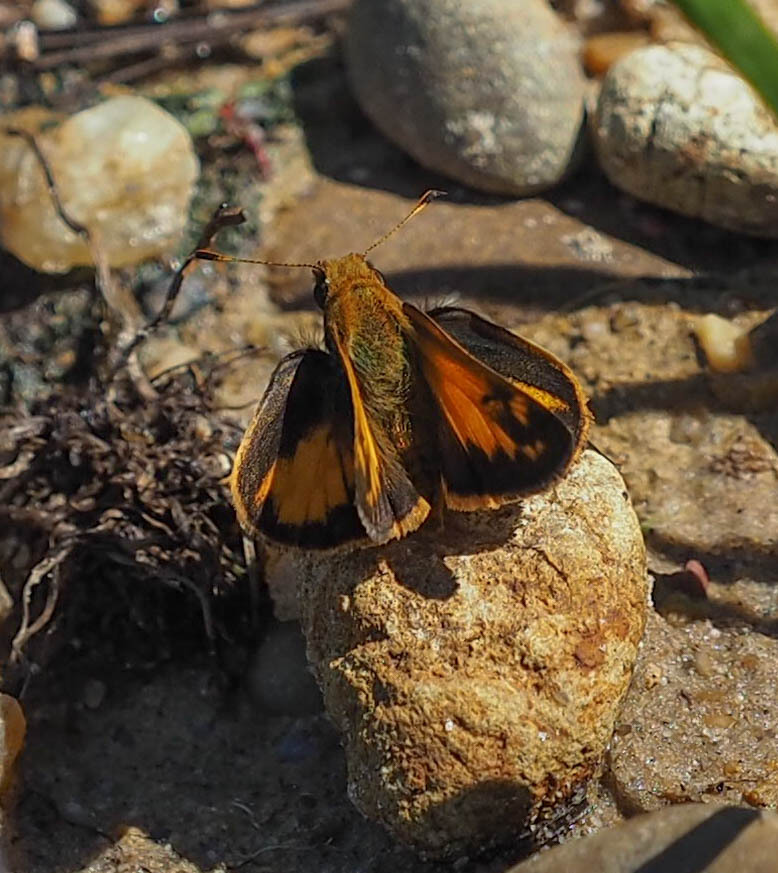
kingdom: Animalia
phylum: Arthropoda
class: Insecta
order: Lepidoptera
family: Hesperiidae
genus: Lon
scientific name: Lon zabulon
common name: Zabulon skipper
